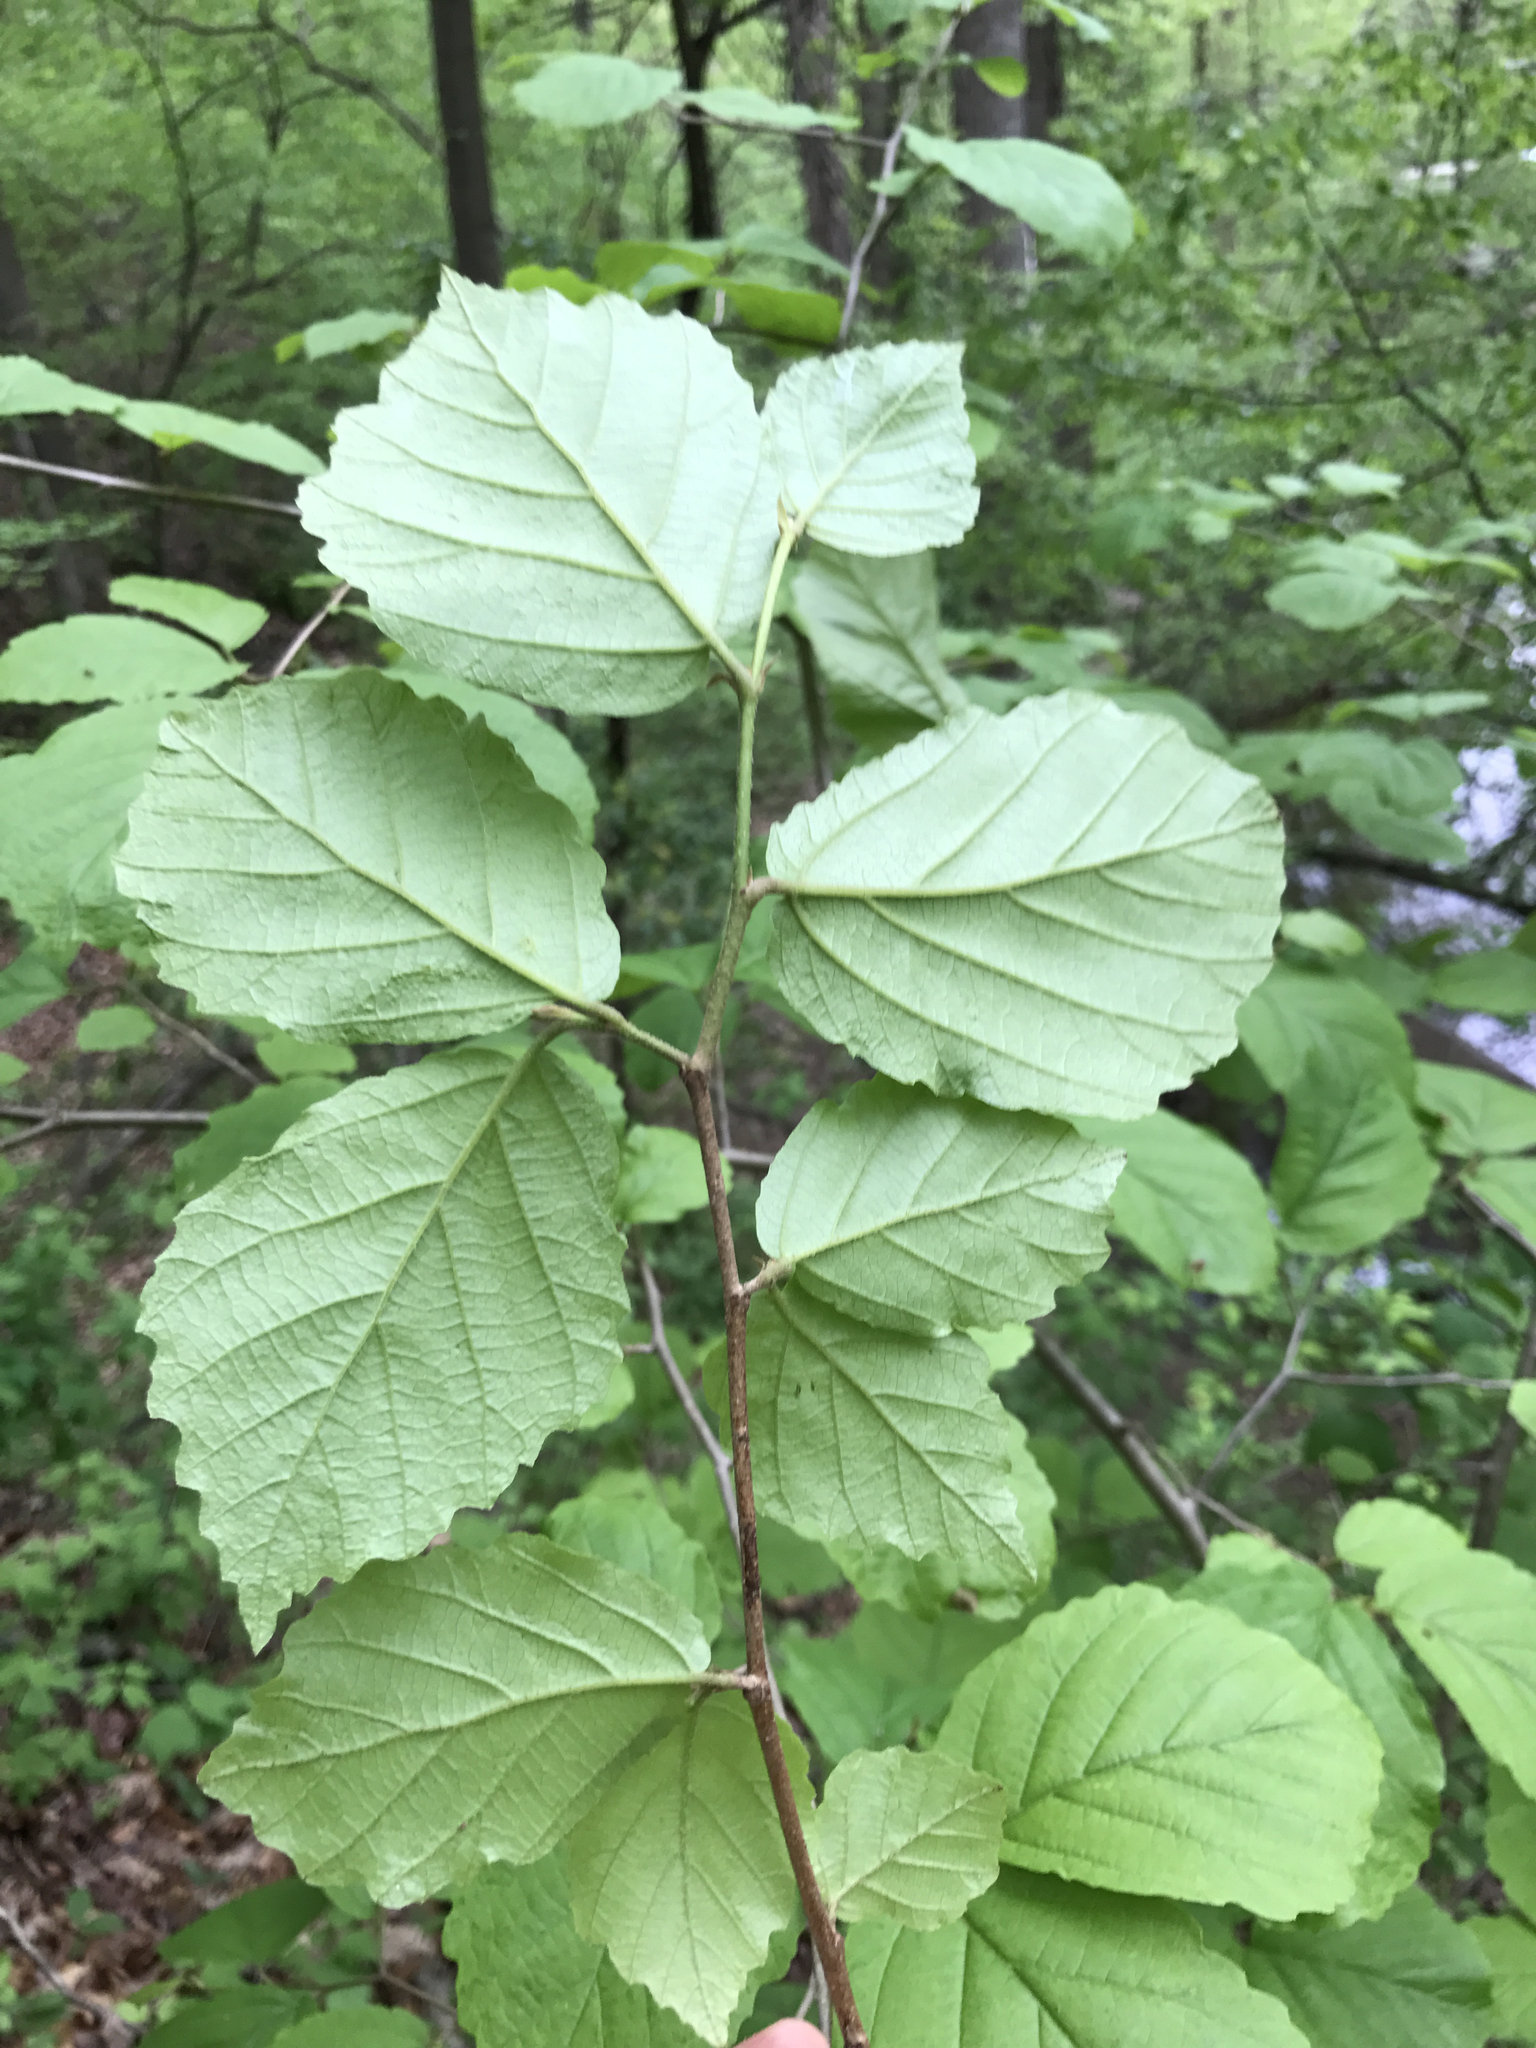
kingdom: Plantae
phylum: Tracheophyta
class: Magnoliopsida
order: Saxifragales
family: Hamamelidaceae
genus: Hamamelis
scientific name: Hamamelis virginiana
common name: Witch-hazel
